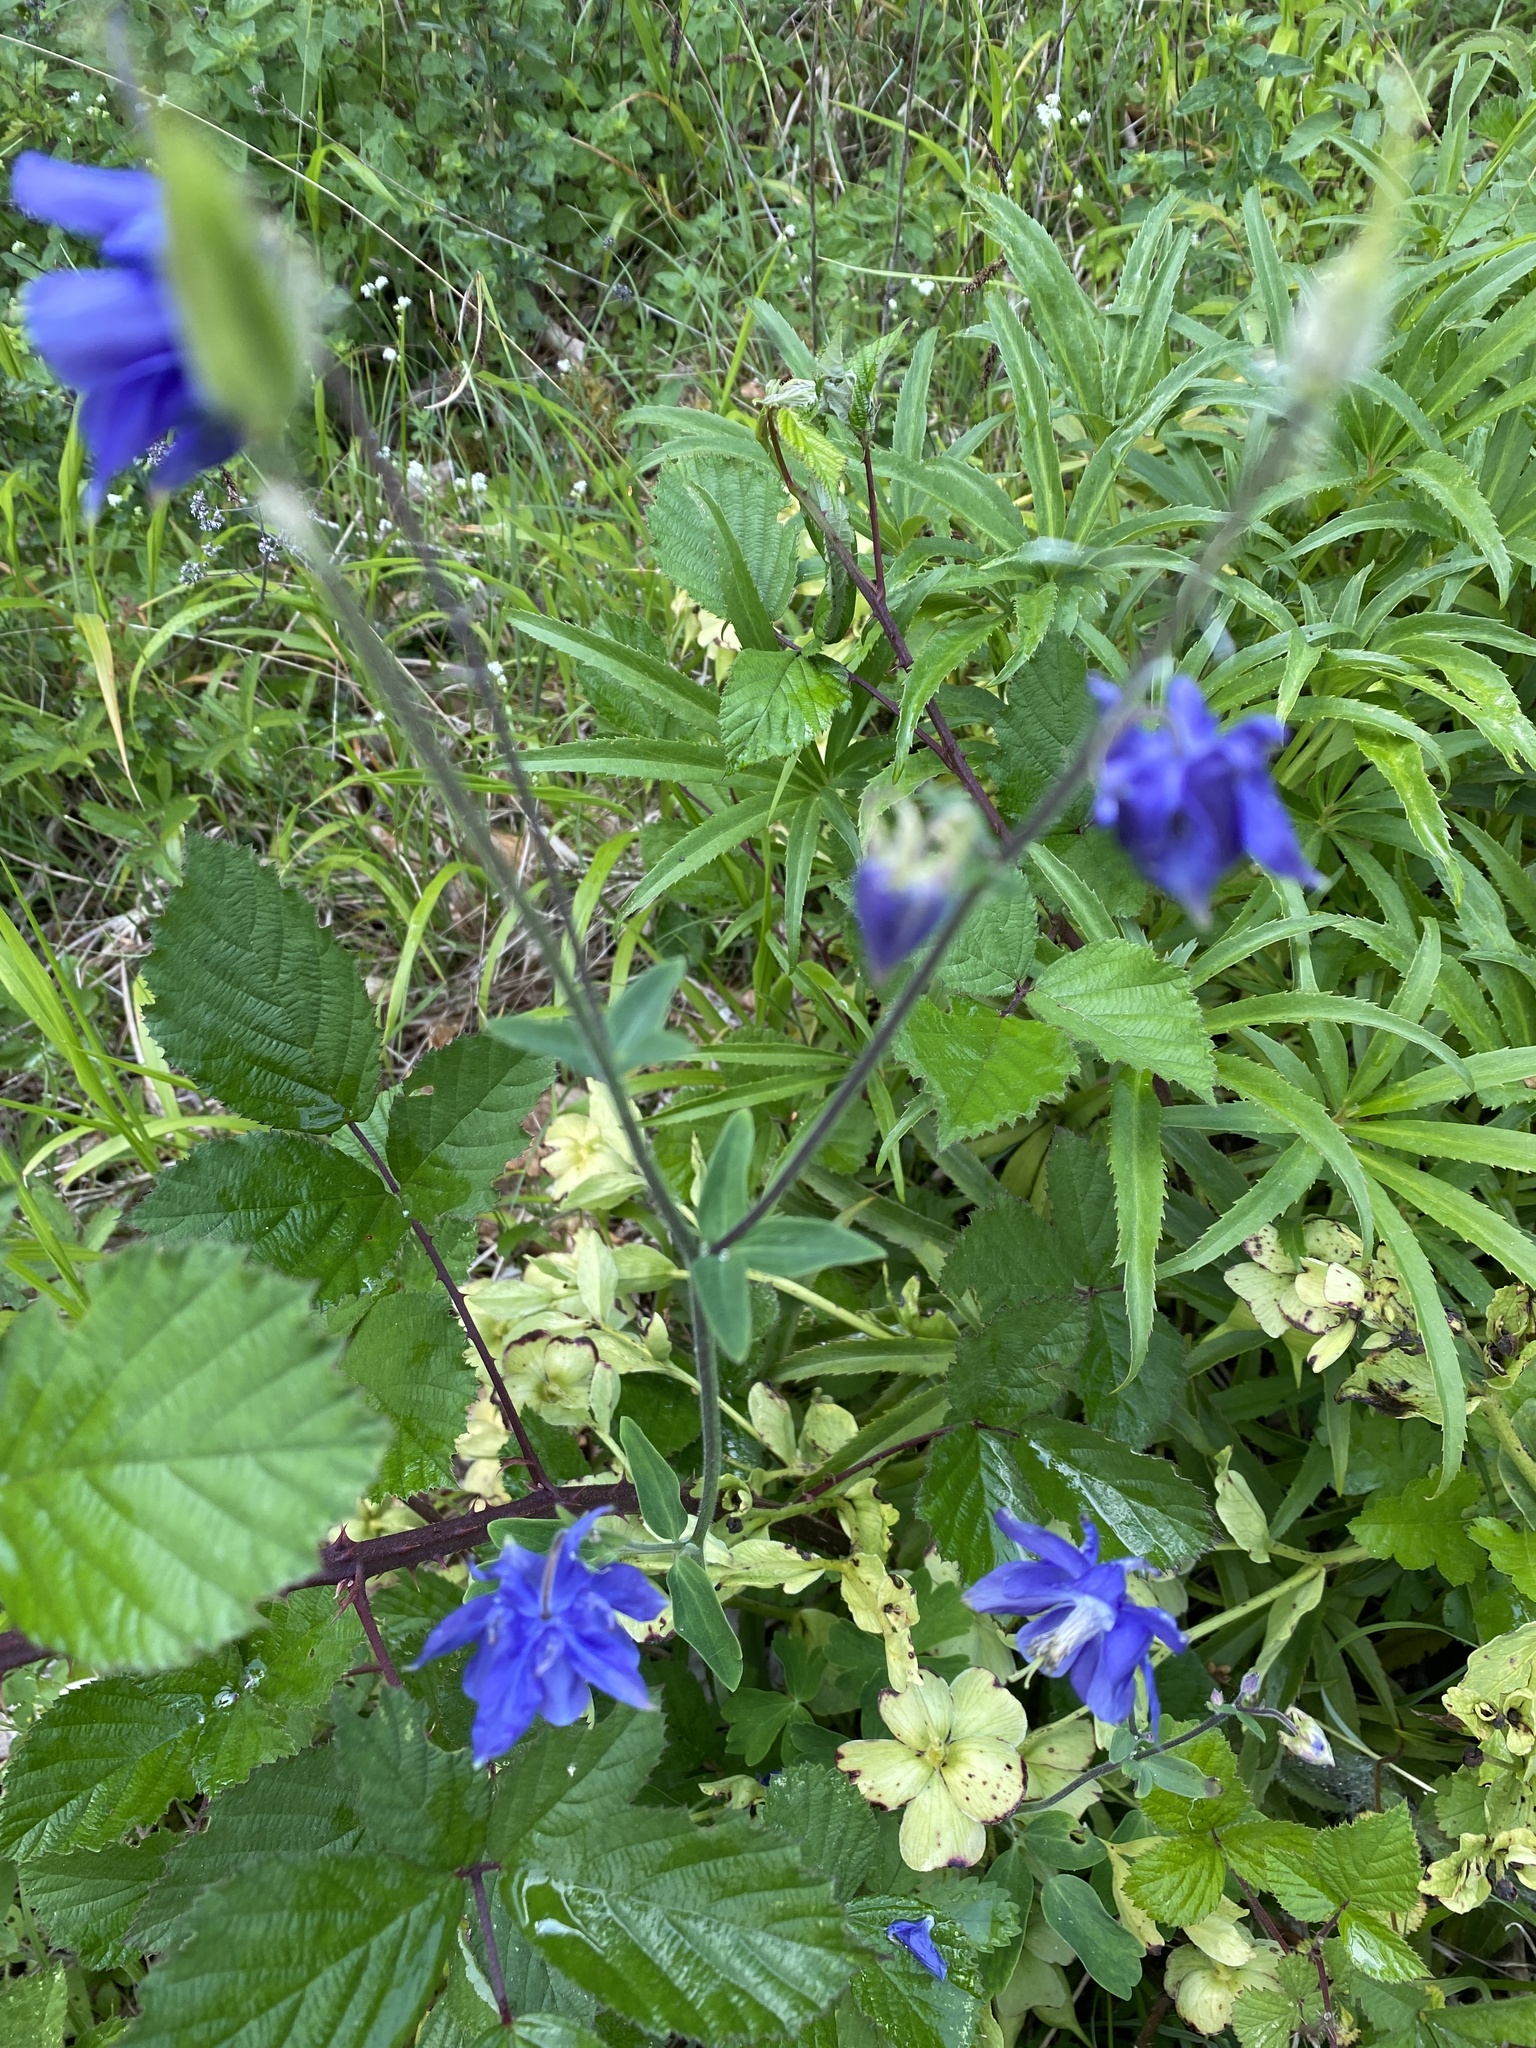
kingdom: Plantae
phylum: Tracheophyta
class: Magnoliopsida
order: Ranunculales
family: Ranunculaceae
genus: Aquilegia
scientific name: Aquilegia vulgaris
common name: Columbine
